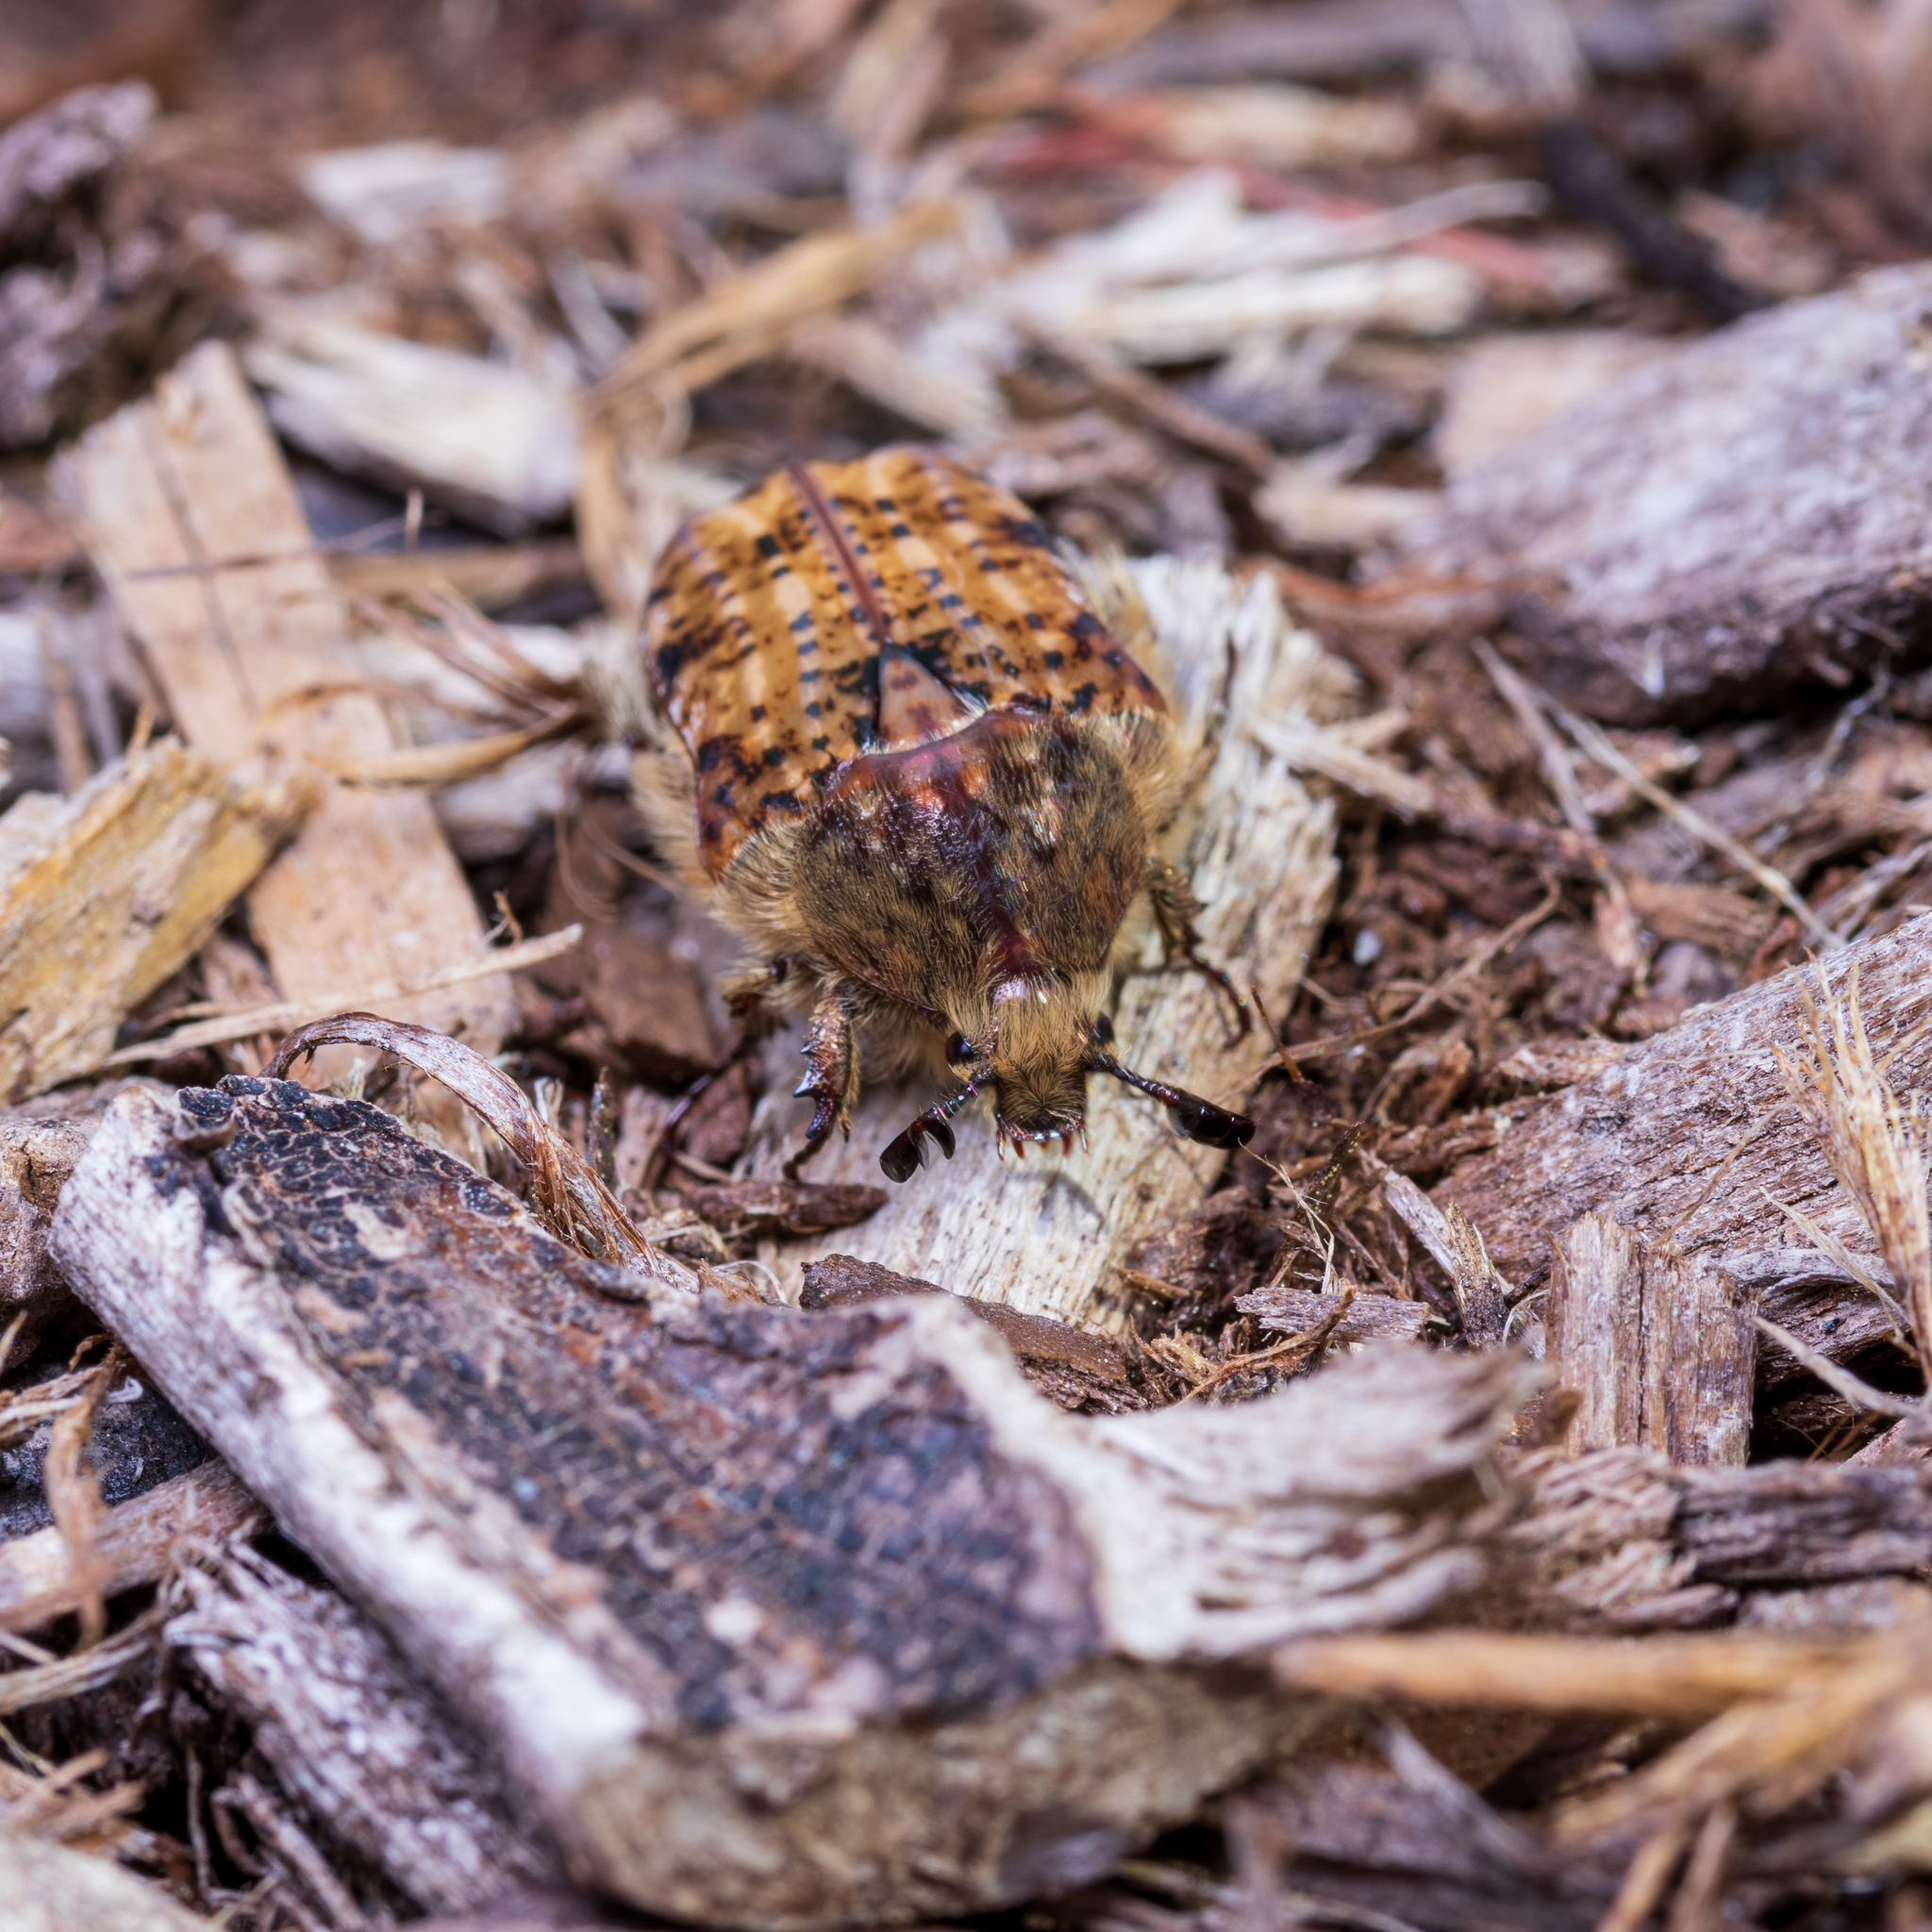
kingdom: Animalia
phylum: Arthropoda
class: Insecta
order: Coleoptera
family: Scarabaeidae
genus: Euphoria
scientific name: Euphoria inda
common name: Bumble flower beetle
